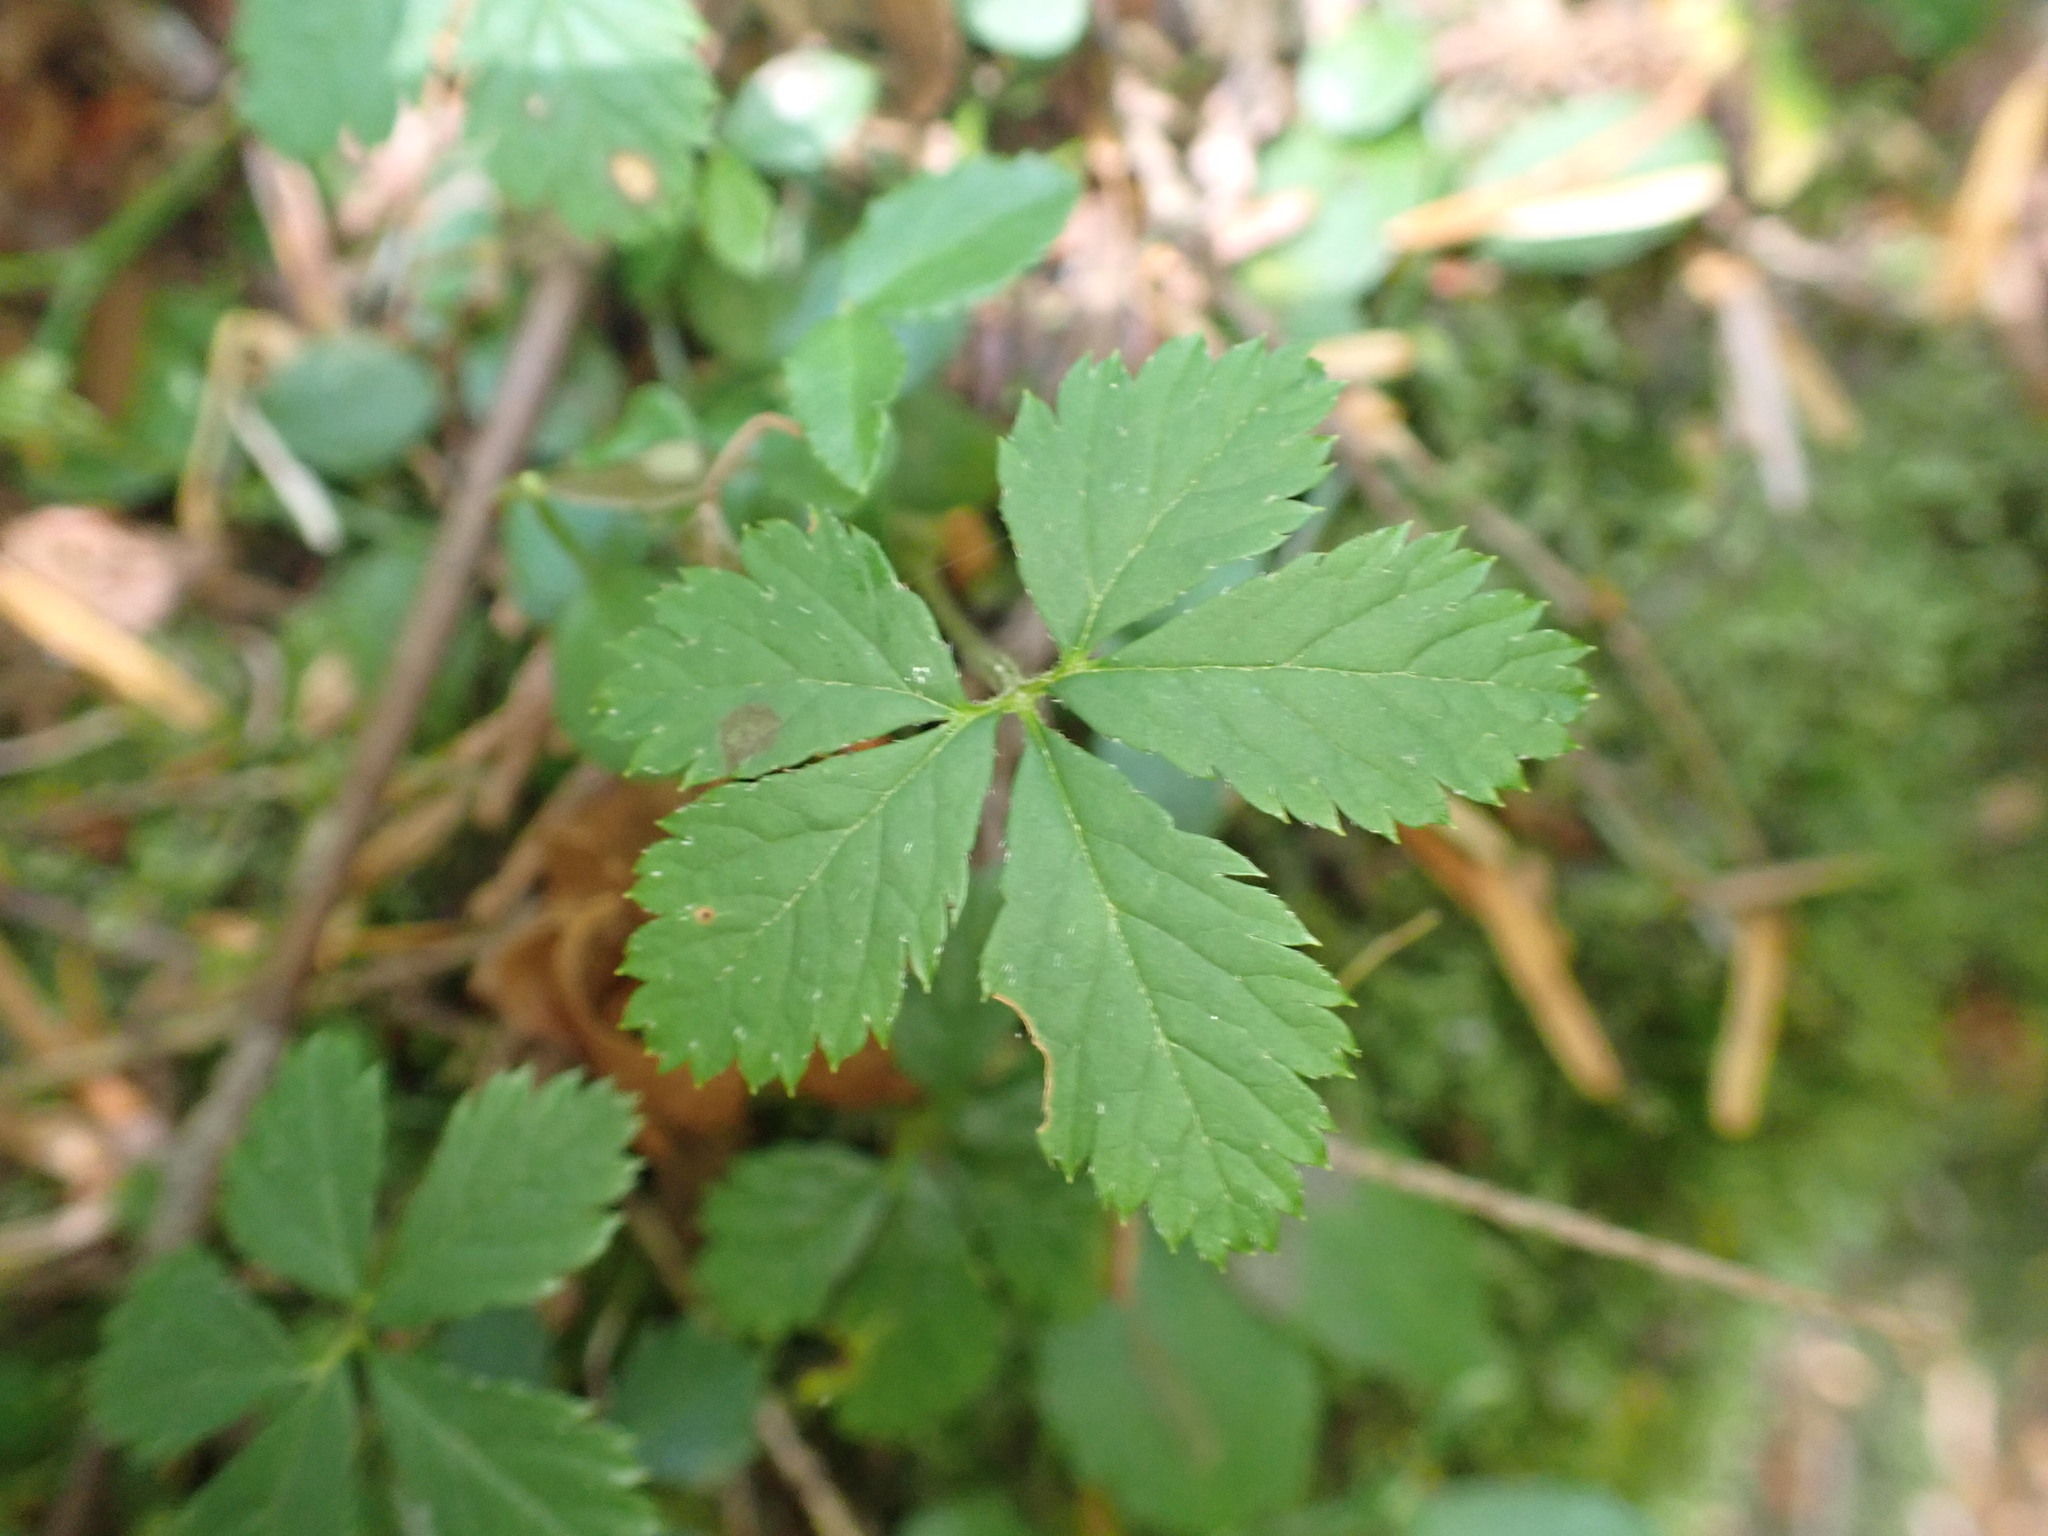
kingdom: Plantae
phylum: Tracheophyta
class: Magnoliopsida
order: Rosales
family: Rosaceae
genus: Rubus
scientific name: Rubus pedatus
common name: Creeping raspberry
